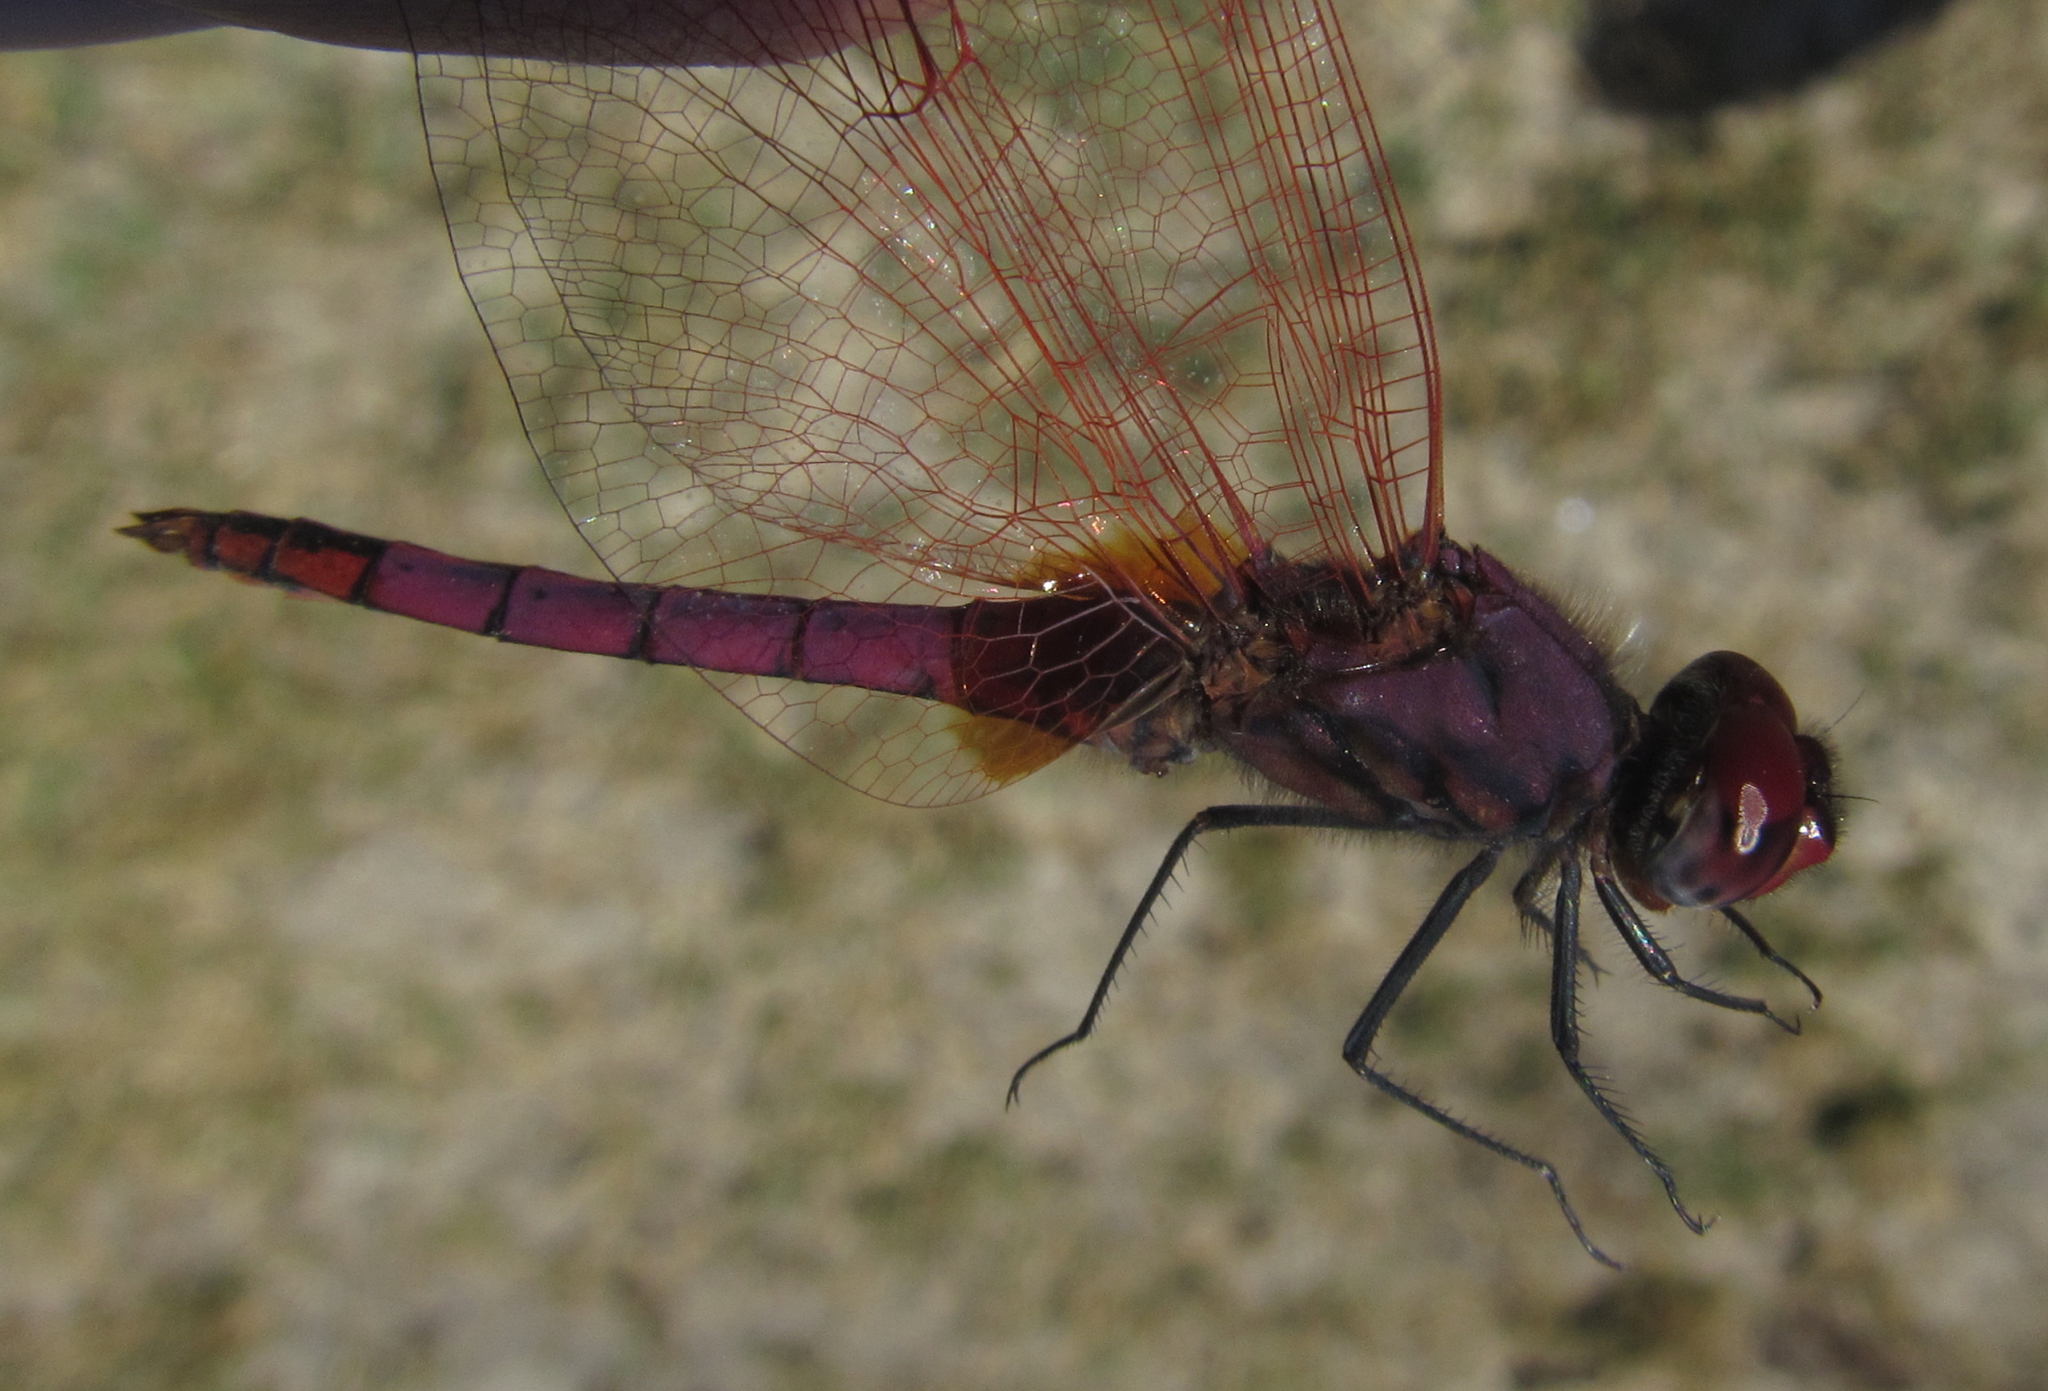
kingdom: Animalia
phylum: Arthropoda
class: Insecta
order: Odonata
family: Libellulidae
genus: Trithemis
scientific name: Trithemis annulata
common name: Violet dropwing
